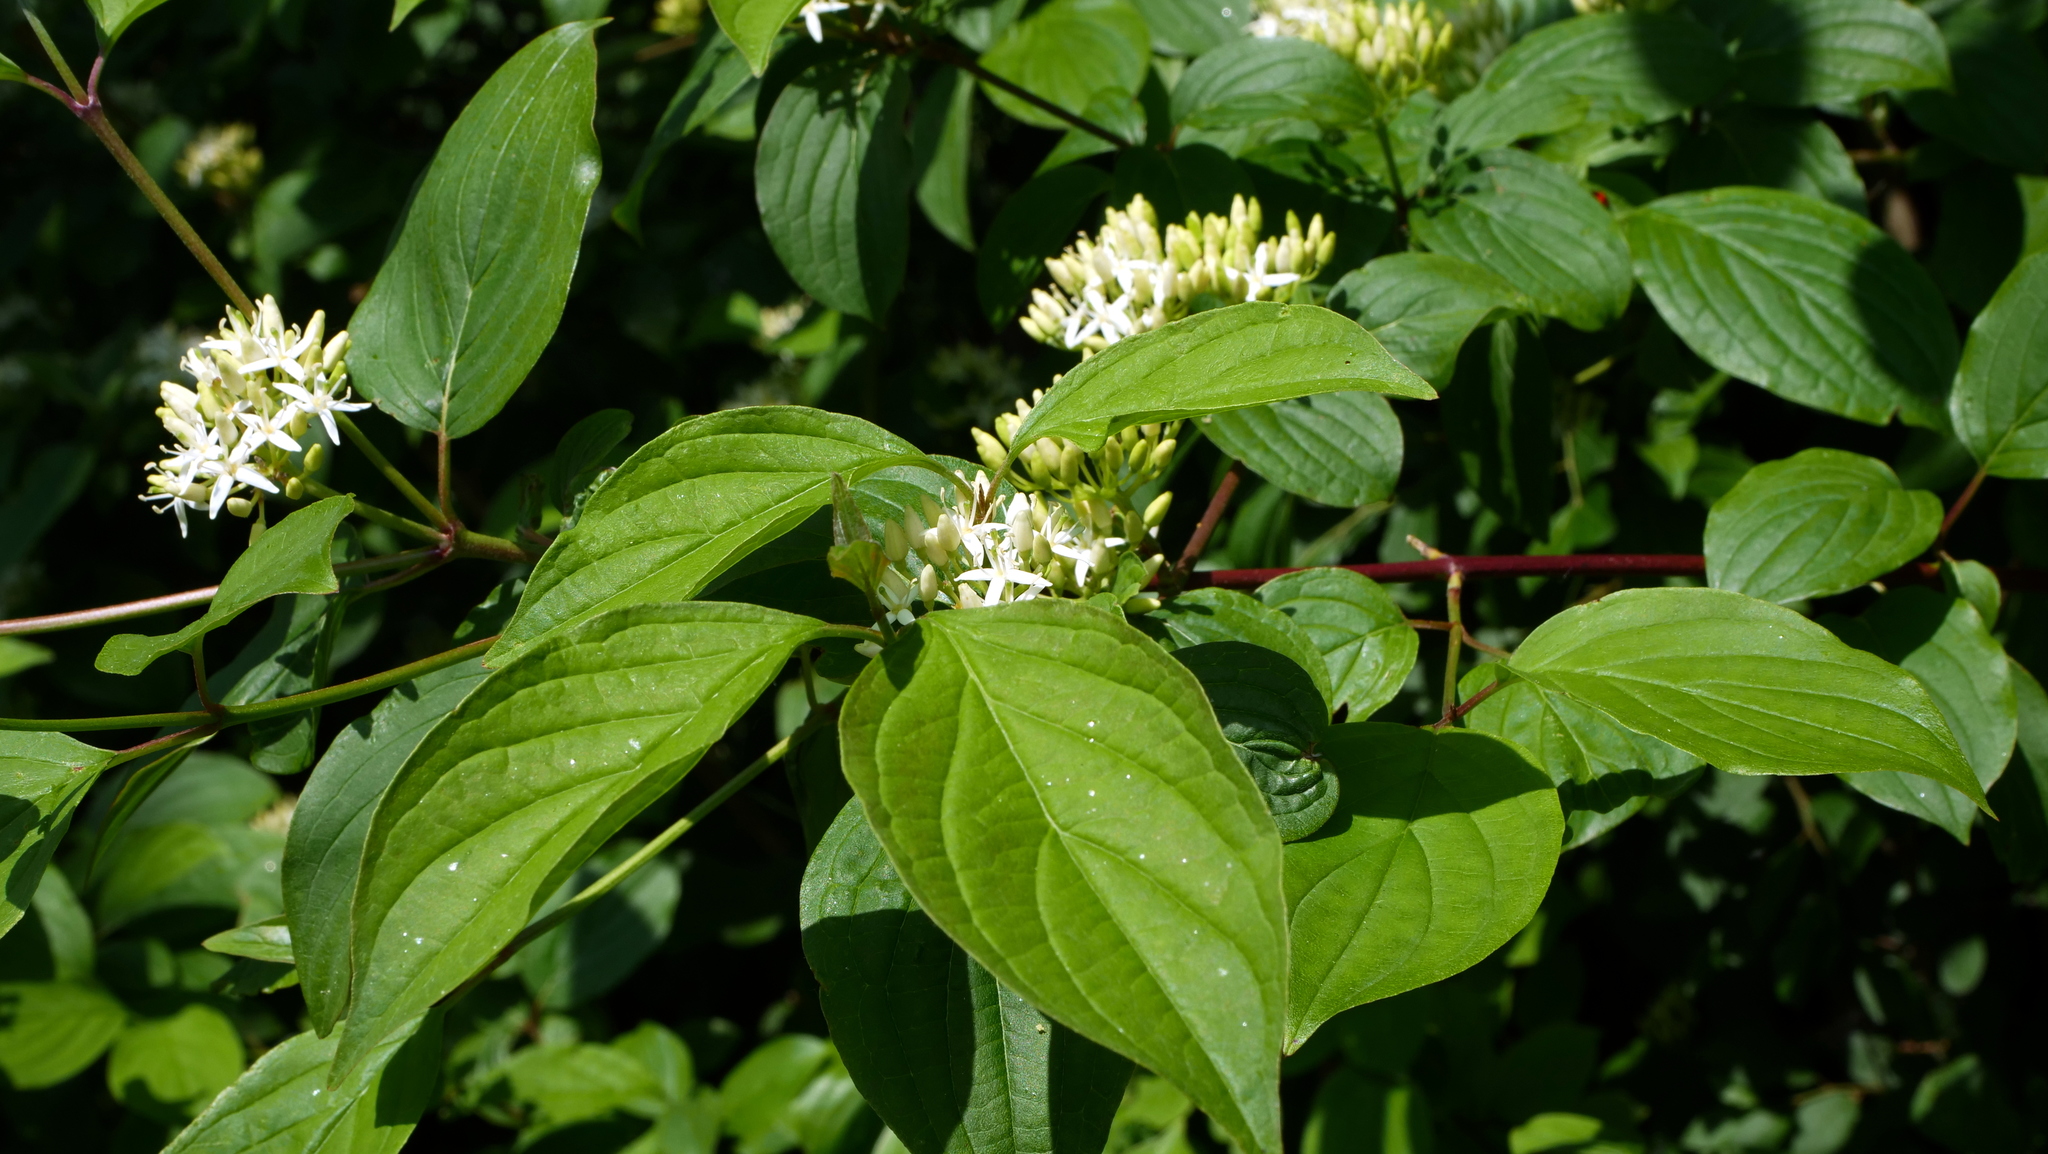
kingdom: Plantae
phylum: Tracheophyta
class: Magnoliopsida
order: Cornales
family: Cornaceae
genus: Cornus
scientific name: Cornus sanguinea
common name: Dogwood
